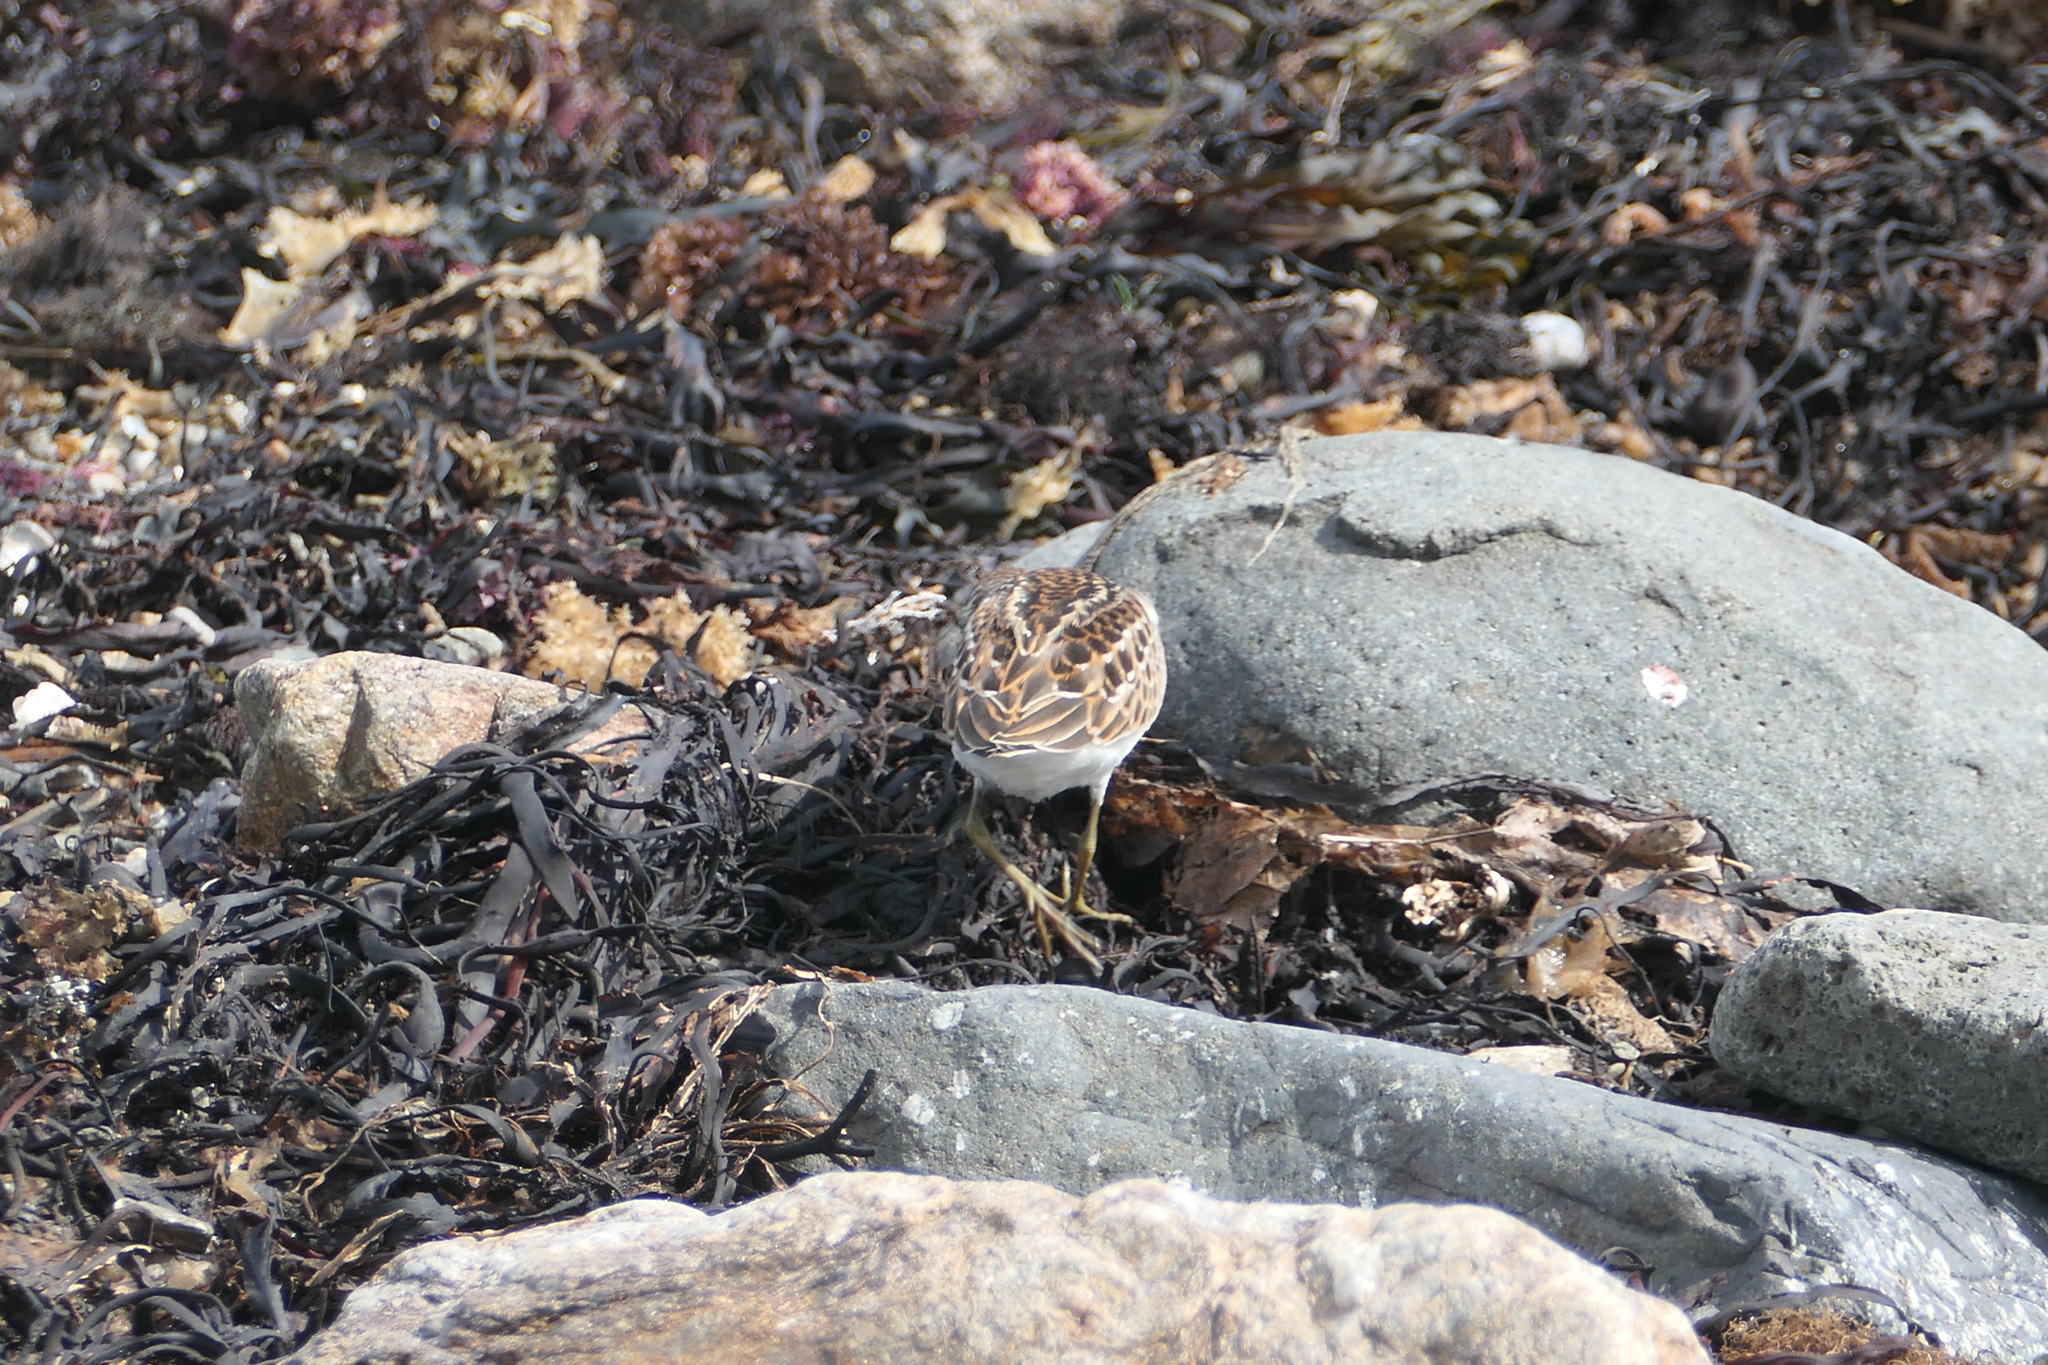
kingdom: Animalia
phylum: Chordata
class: Aves
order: Charadriiformes
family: Scolopacidae
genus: Calidris
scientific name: Calidris minutilla
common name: Least sandpiper
